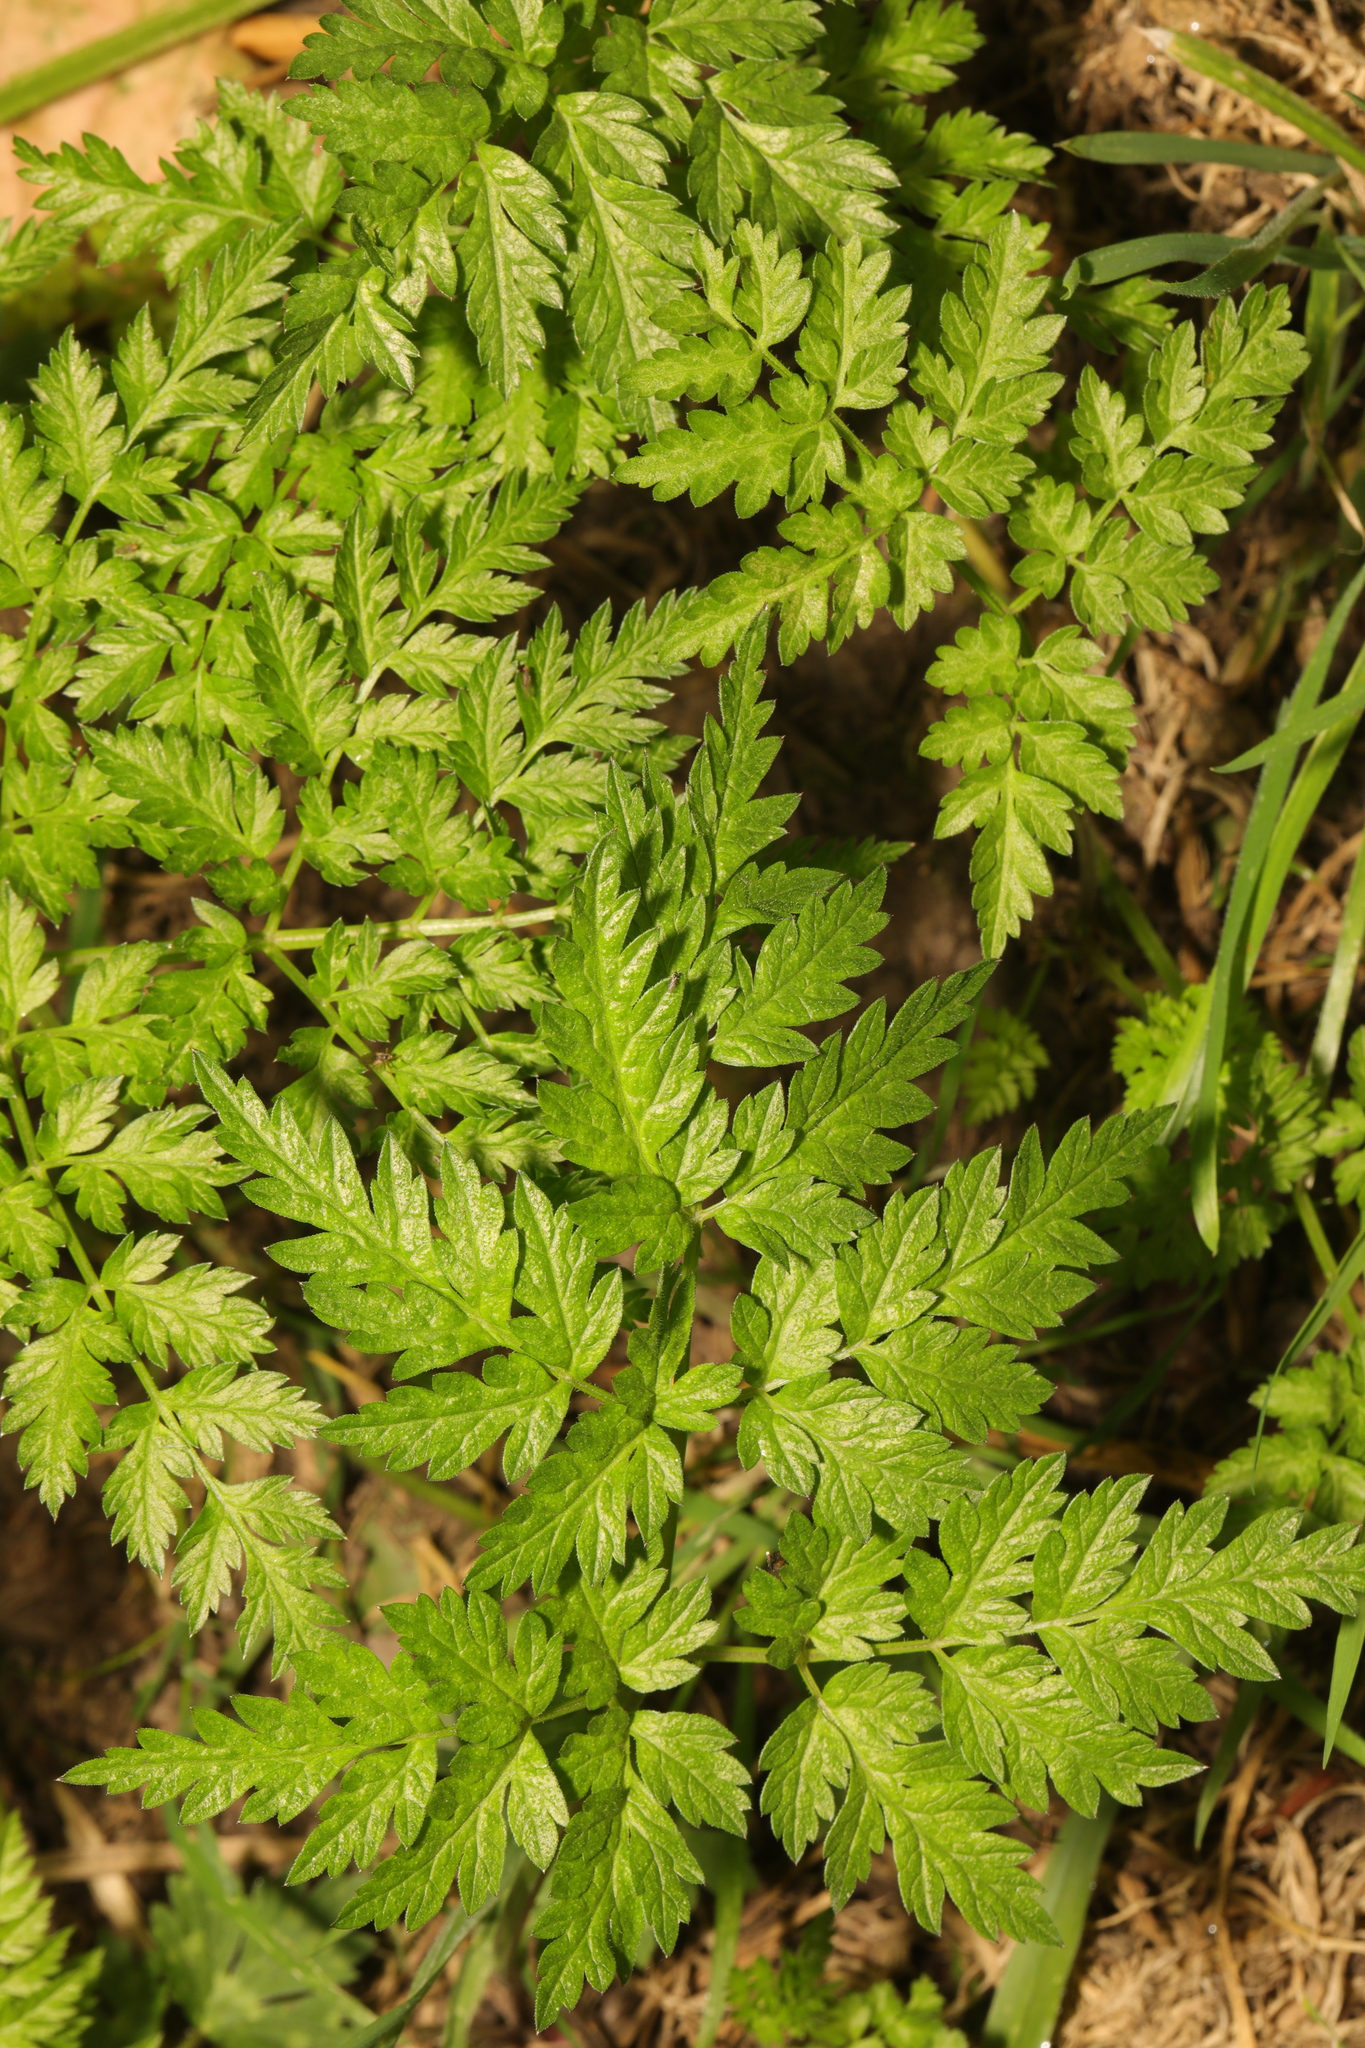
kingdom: Plantae
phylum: Tracheophyta
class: Magnoliopsida
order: Apiales
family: Apiaceae
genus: Anthriscus
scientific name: Anthriscus sylvestris
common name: Cow parsley
